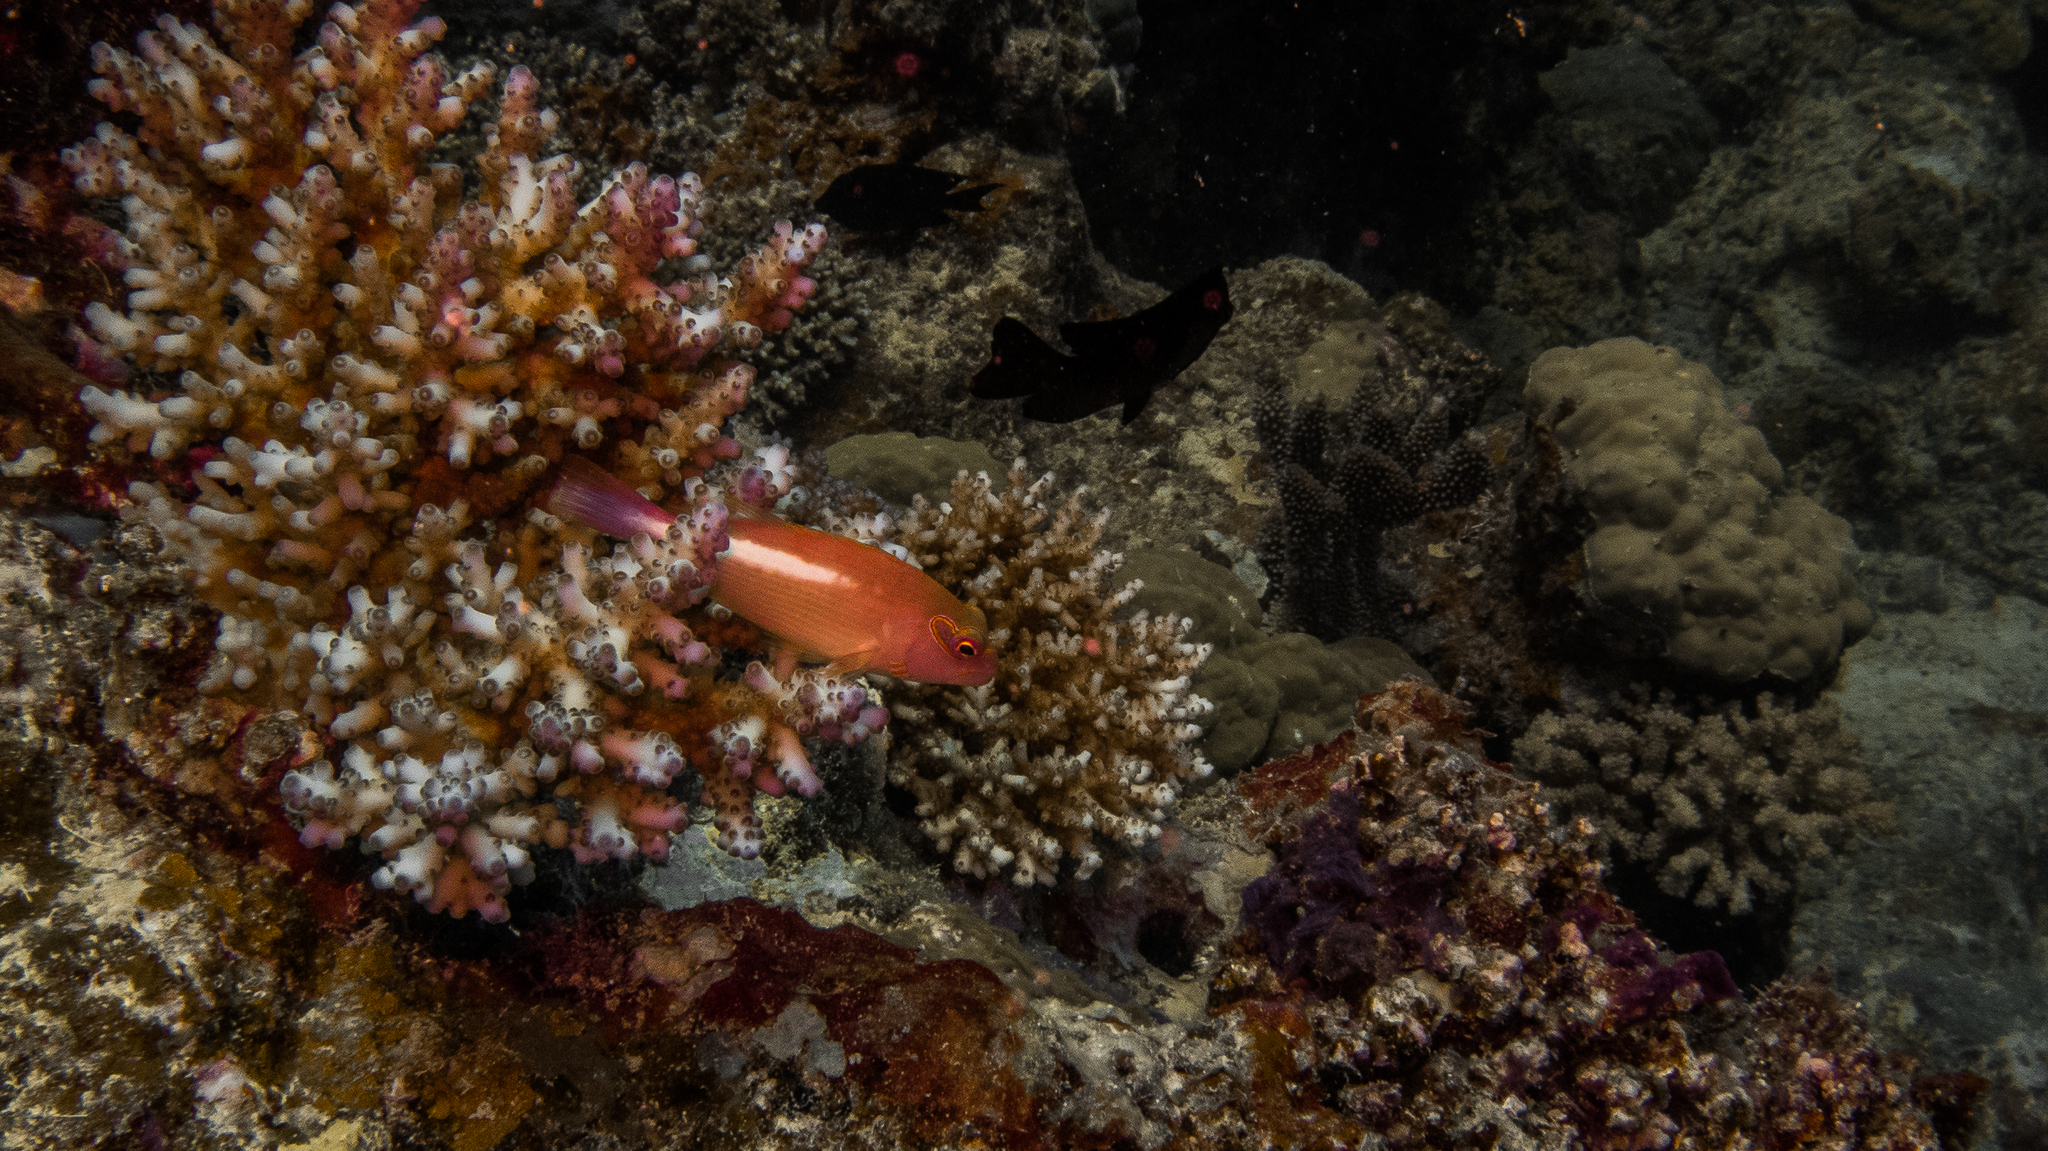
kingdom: Animalia
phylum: Chordata
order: Perciformes
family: Cirrhitidae
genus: Paracirrhites
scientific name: Paracirrhites arcatus
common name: Arc-eye hawkfish
